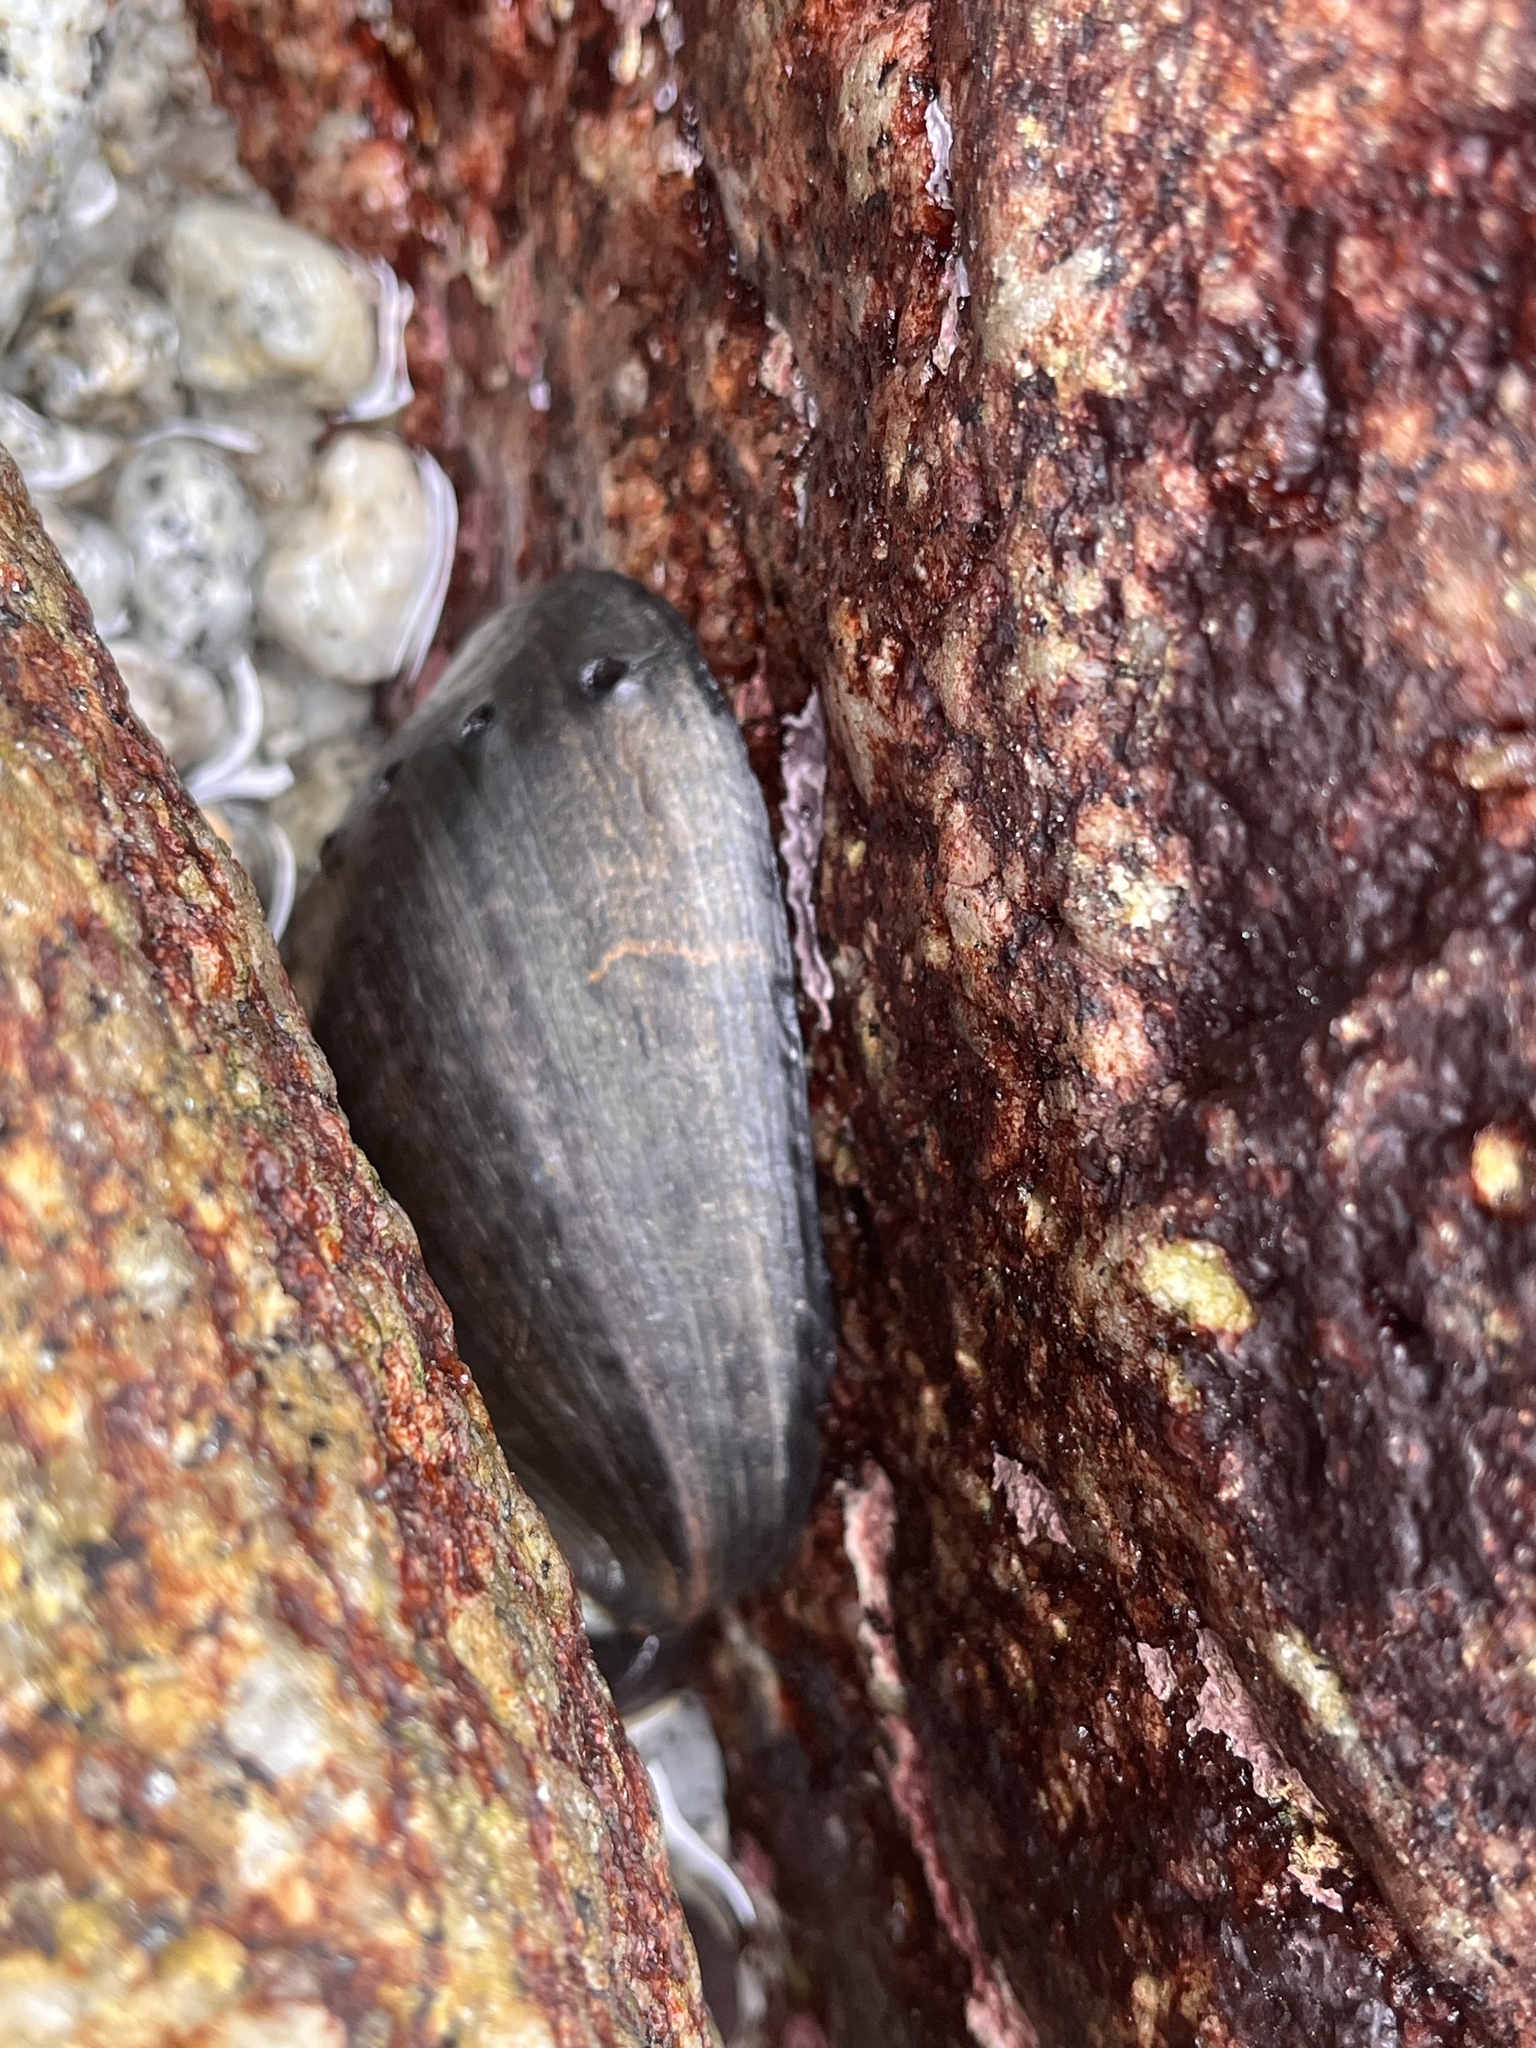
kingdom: Animalia
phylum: Mollusca
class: Gastropoda
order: Lepetellida
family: Haliotidae
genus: Haliotis
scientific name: Haliotis cracherodii
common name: Black abalone
